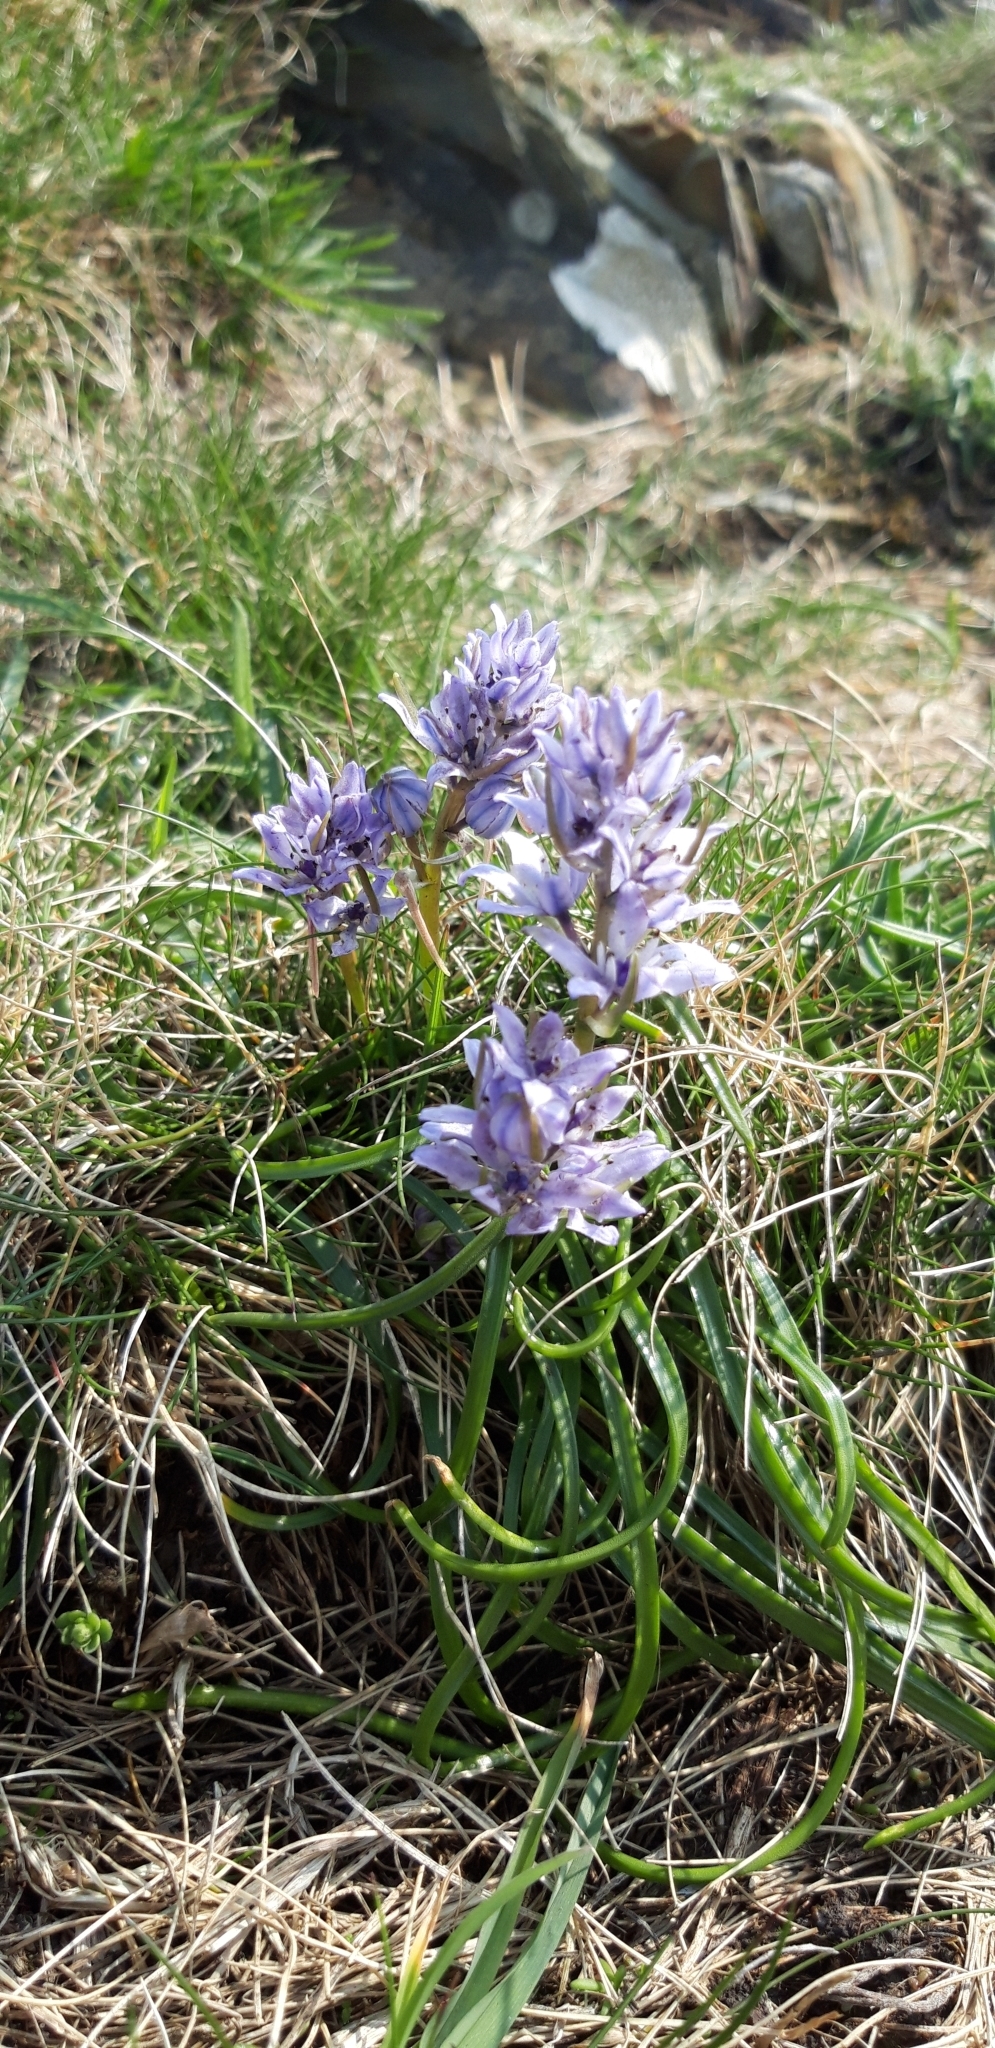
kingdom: Plantae
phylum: Tracheophyta
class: Liliopsida
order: Asparagales
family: Asparagaceae
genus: Scilla
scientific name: Scilla verna
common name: Spring squill
